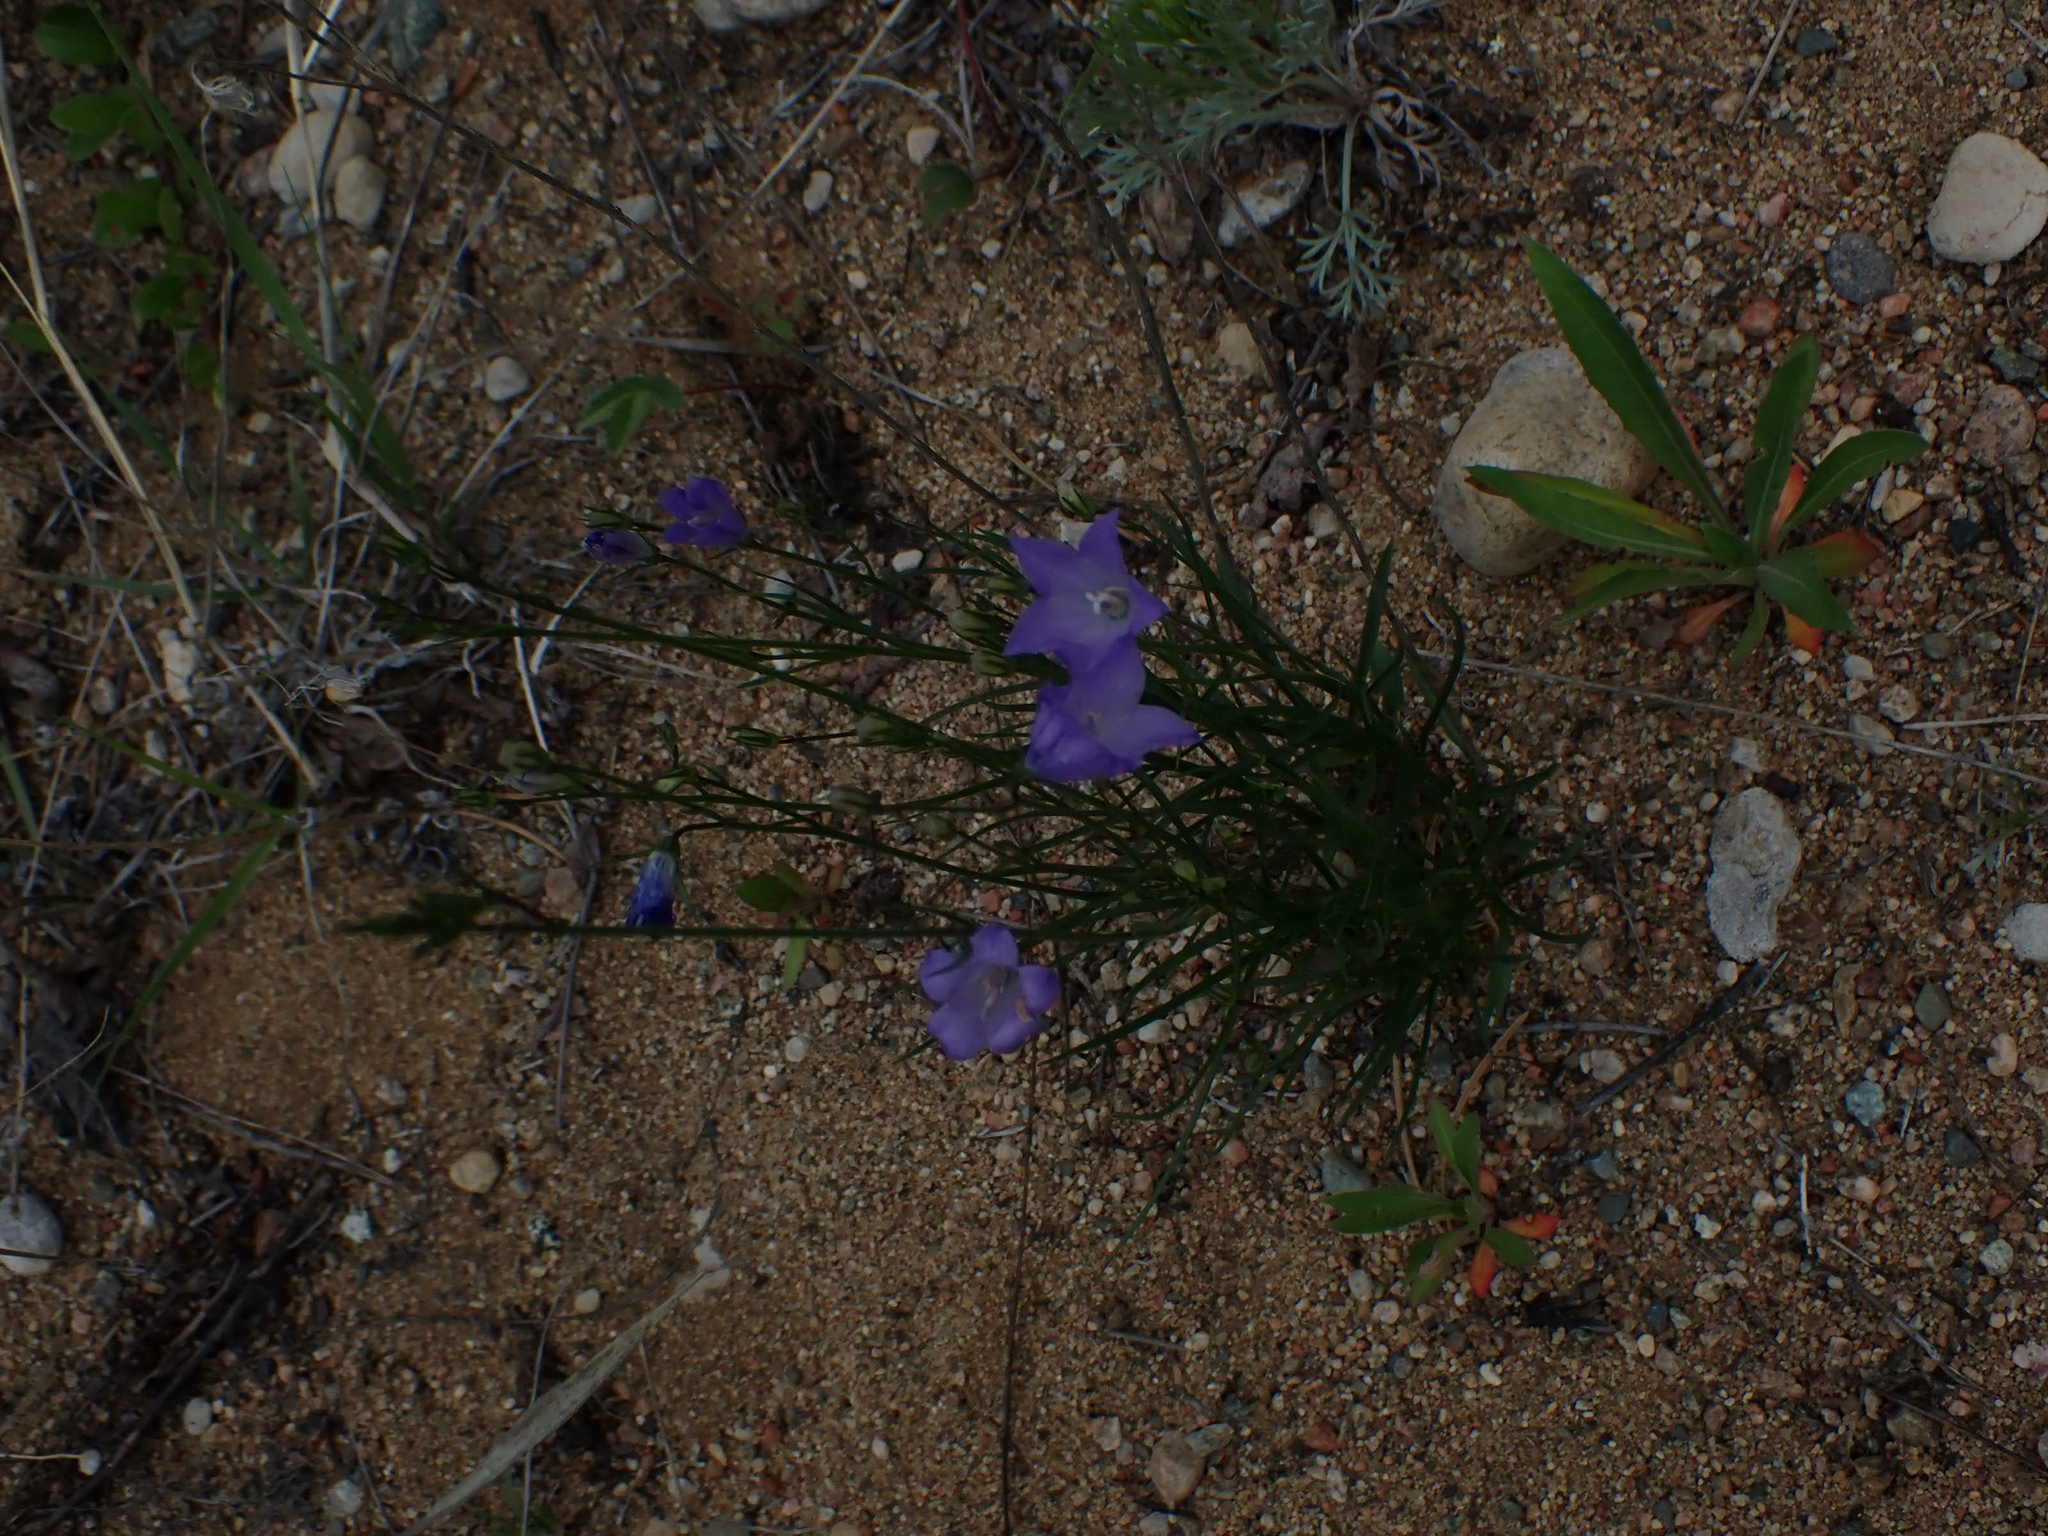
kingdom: Plantae
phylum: Tracheophyta
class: Magnoliopsida
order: Asterales
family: Campanulaceae
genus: Campanula
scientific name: Campanula petiolata
